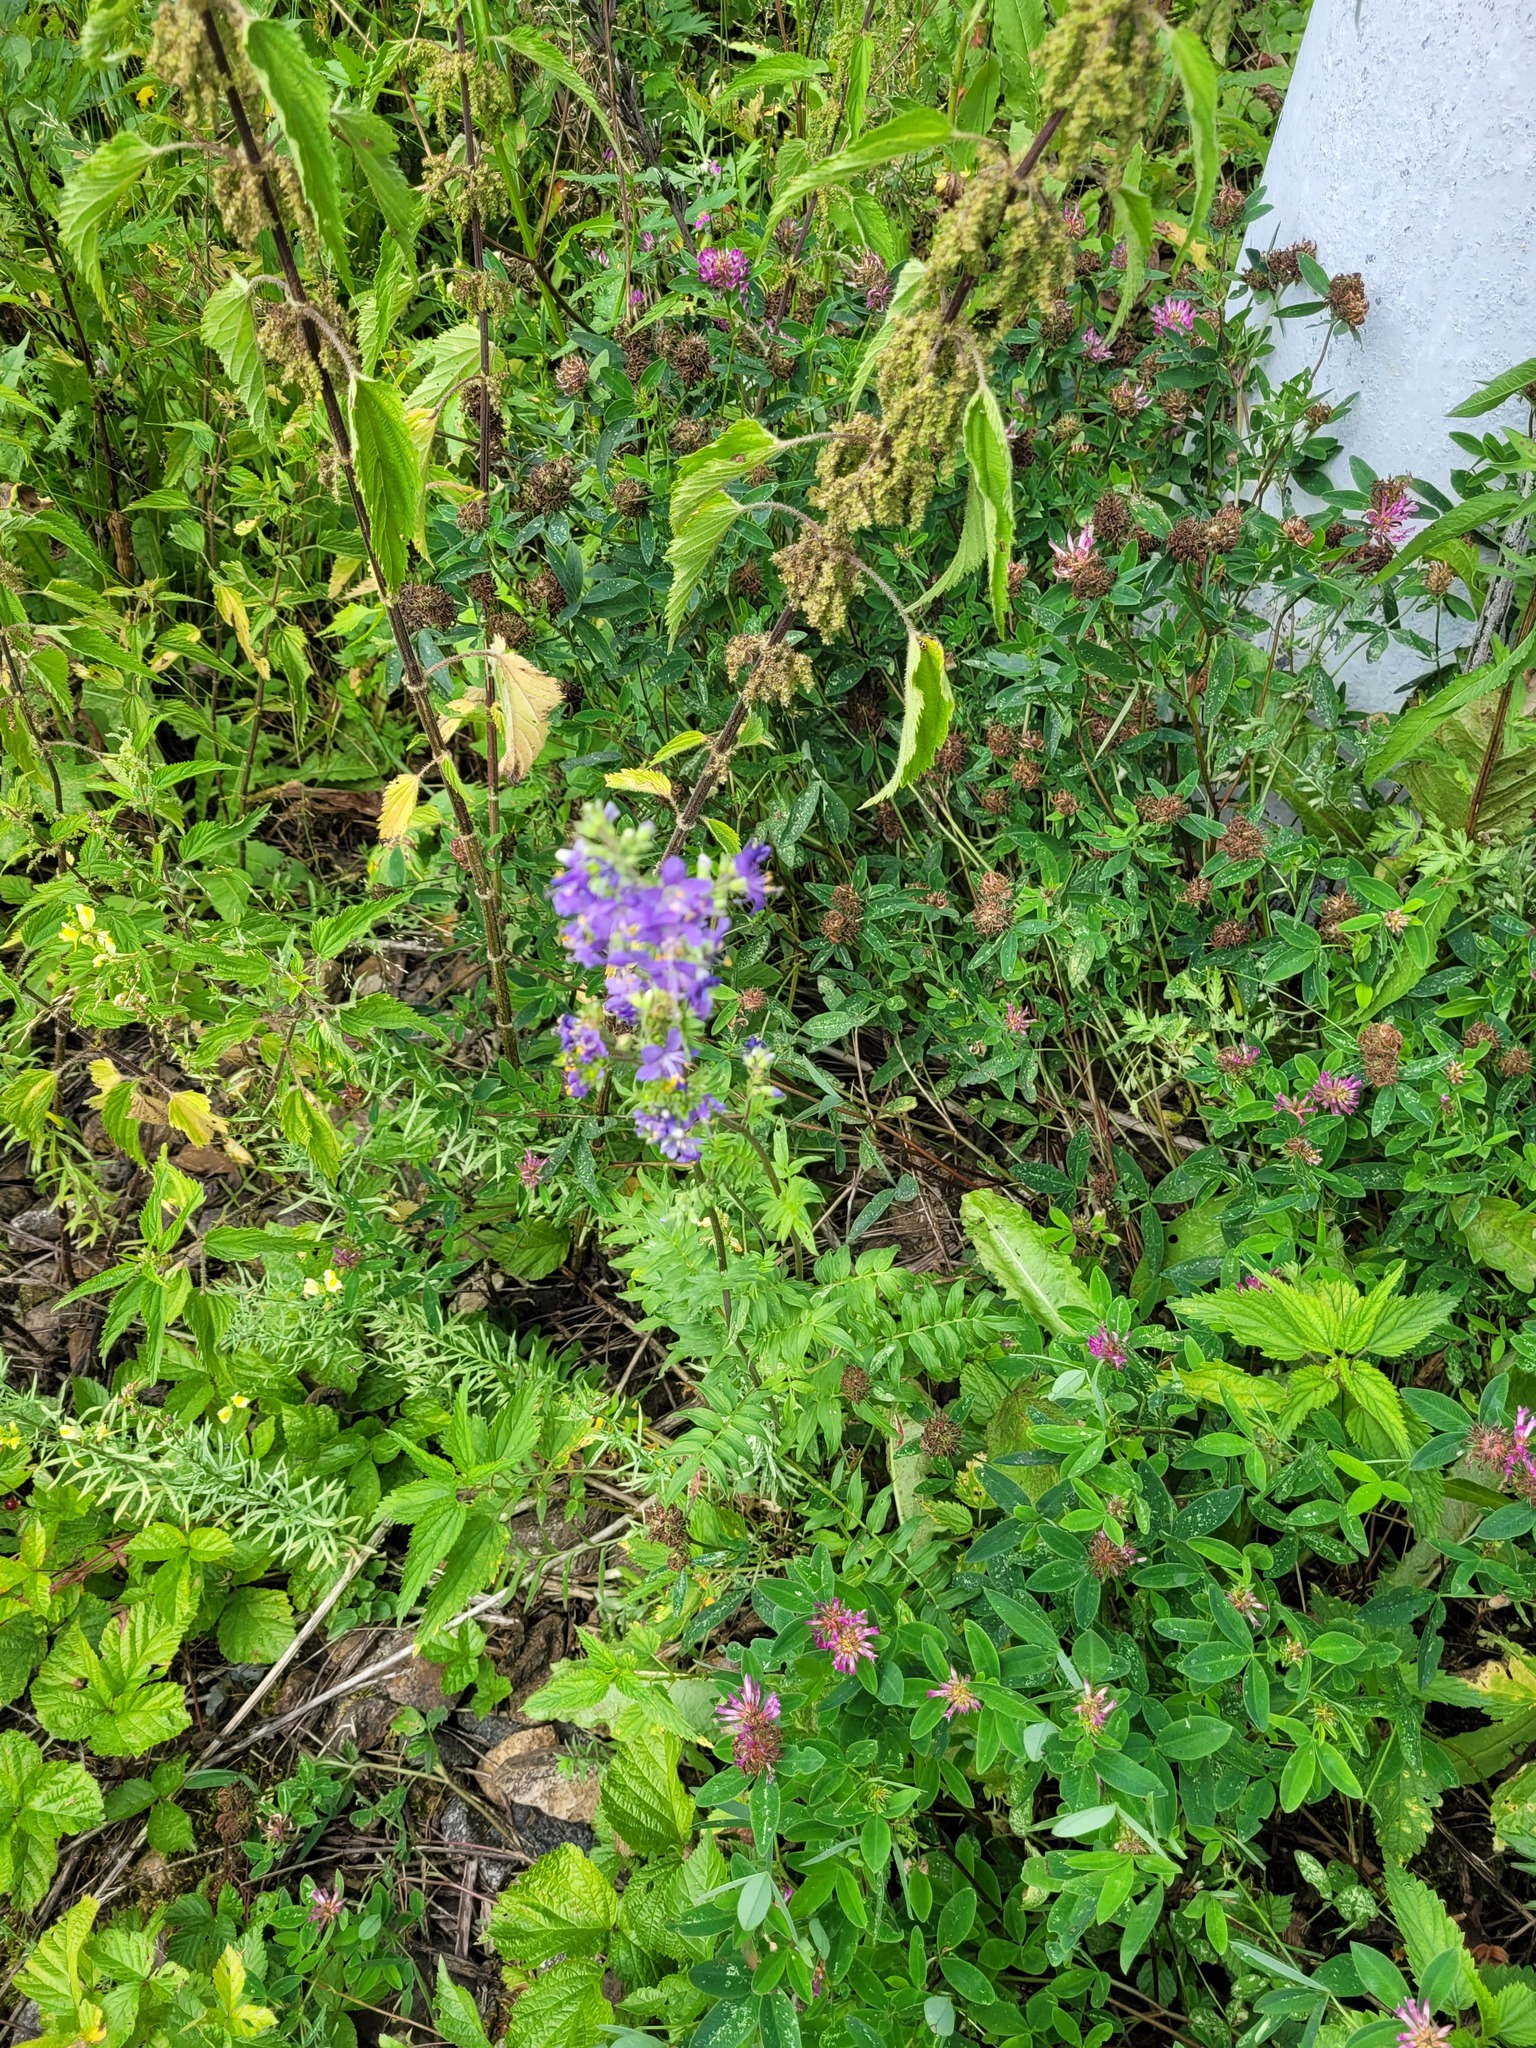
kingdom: Plantae
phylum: Tracheophyta
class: Magnoliopsida
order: Ericales
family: Polemoniaceae
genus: Polemonium
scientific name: Polemonium caeruleum
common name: Jacob's-ladder
